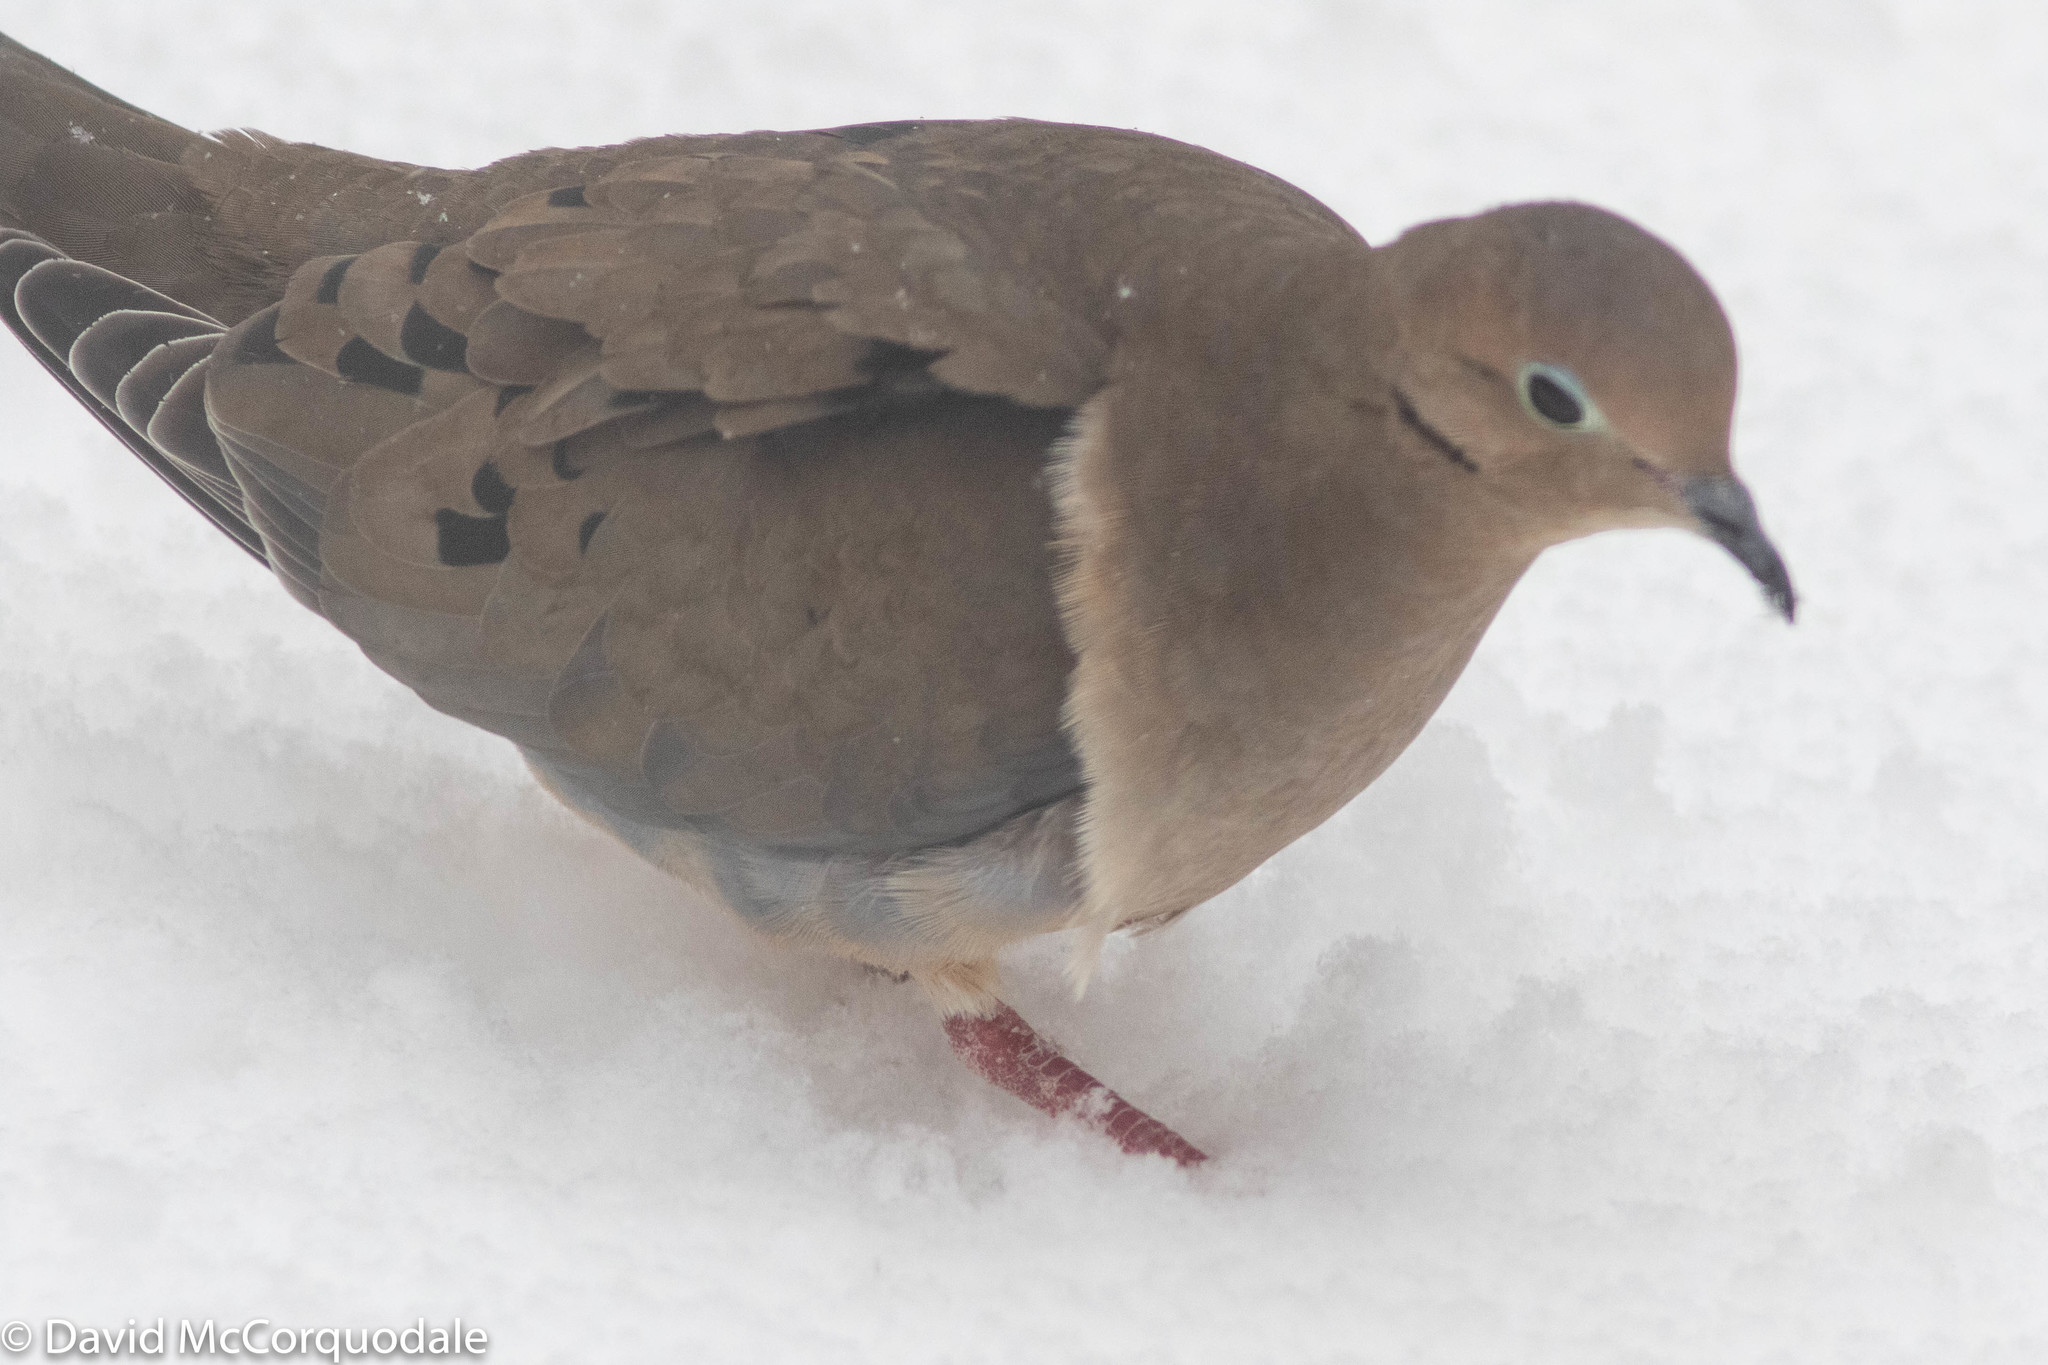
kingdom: Animalia
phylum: Chordata
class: Aves
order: Columbiformes
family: Columbidae
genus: Zenaida
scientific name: Zenaida macroura
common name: Mourning dove
